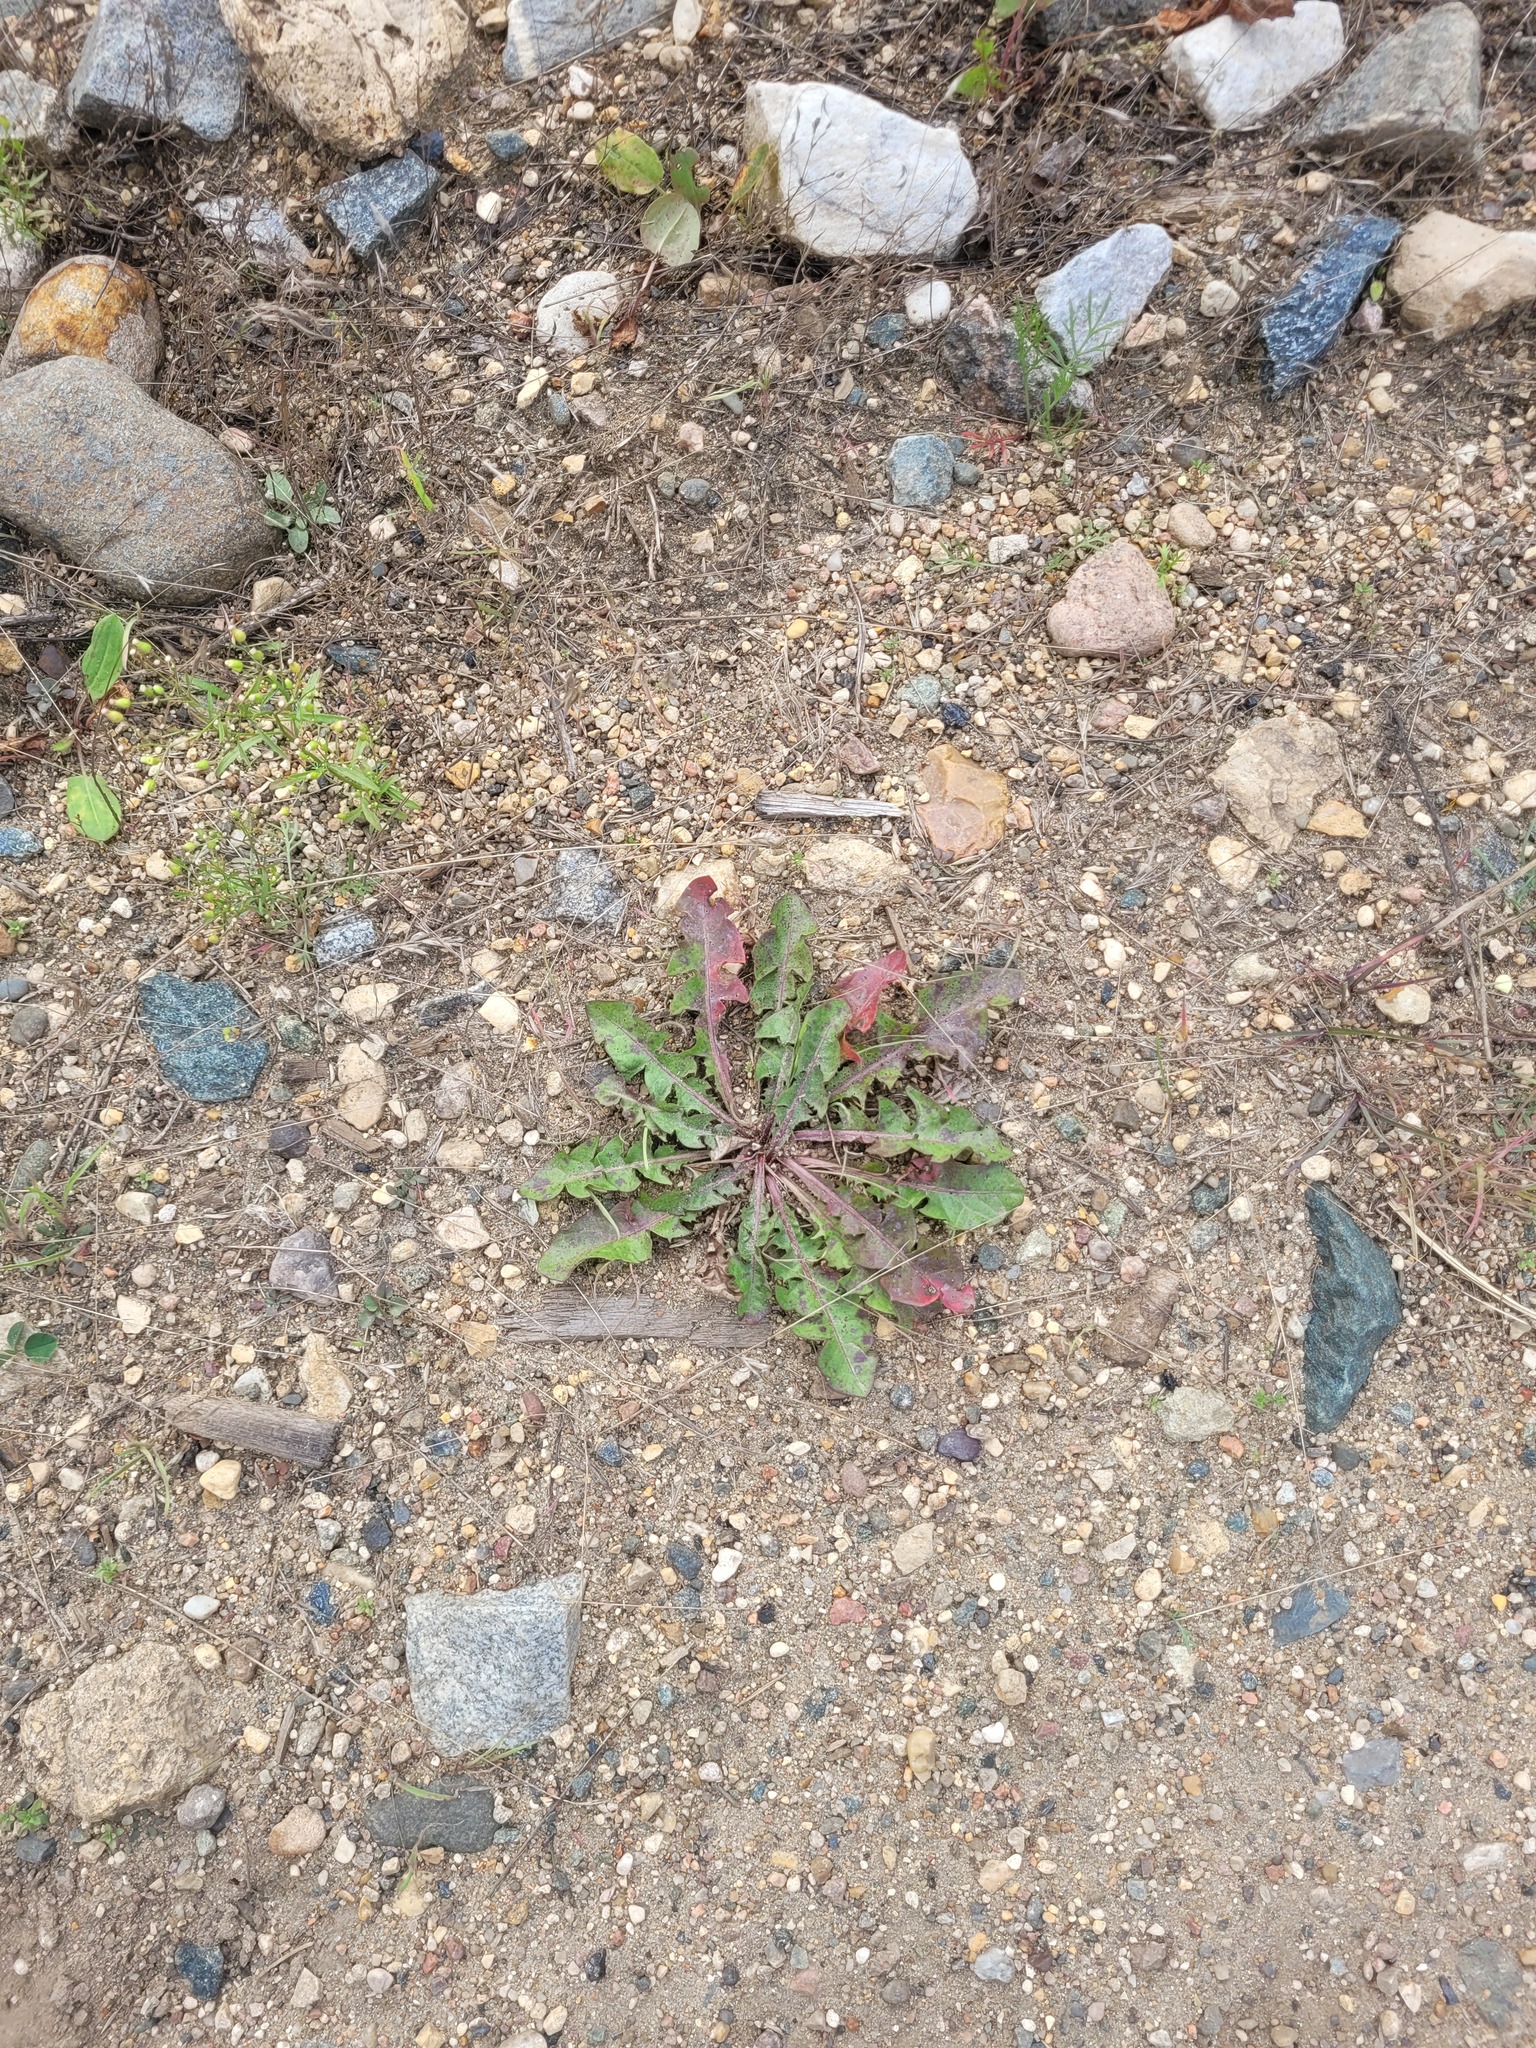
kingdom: Plantae
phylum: Tracheophyta
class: Magnoliopsida
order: Asterales
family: Asteraceae
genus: Taraxacum
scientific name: Taraxacum officinale
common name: Common dandelion
